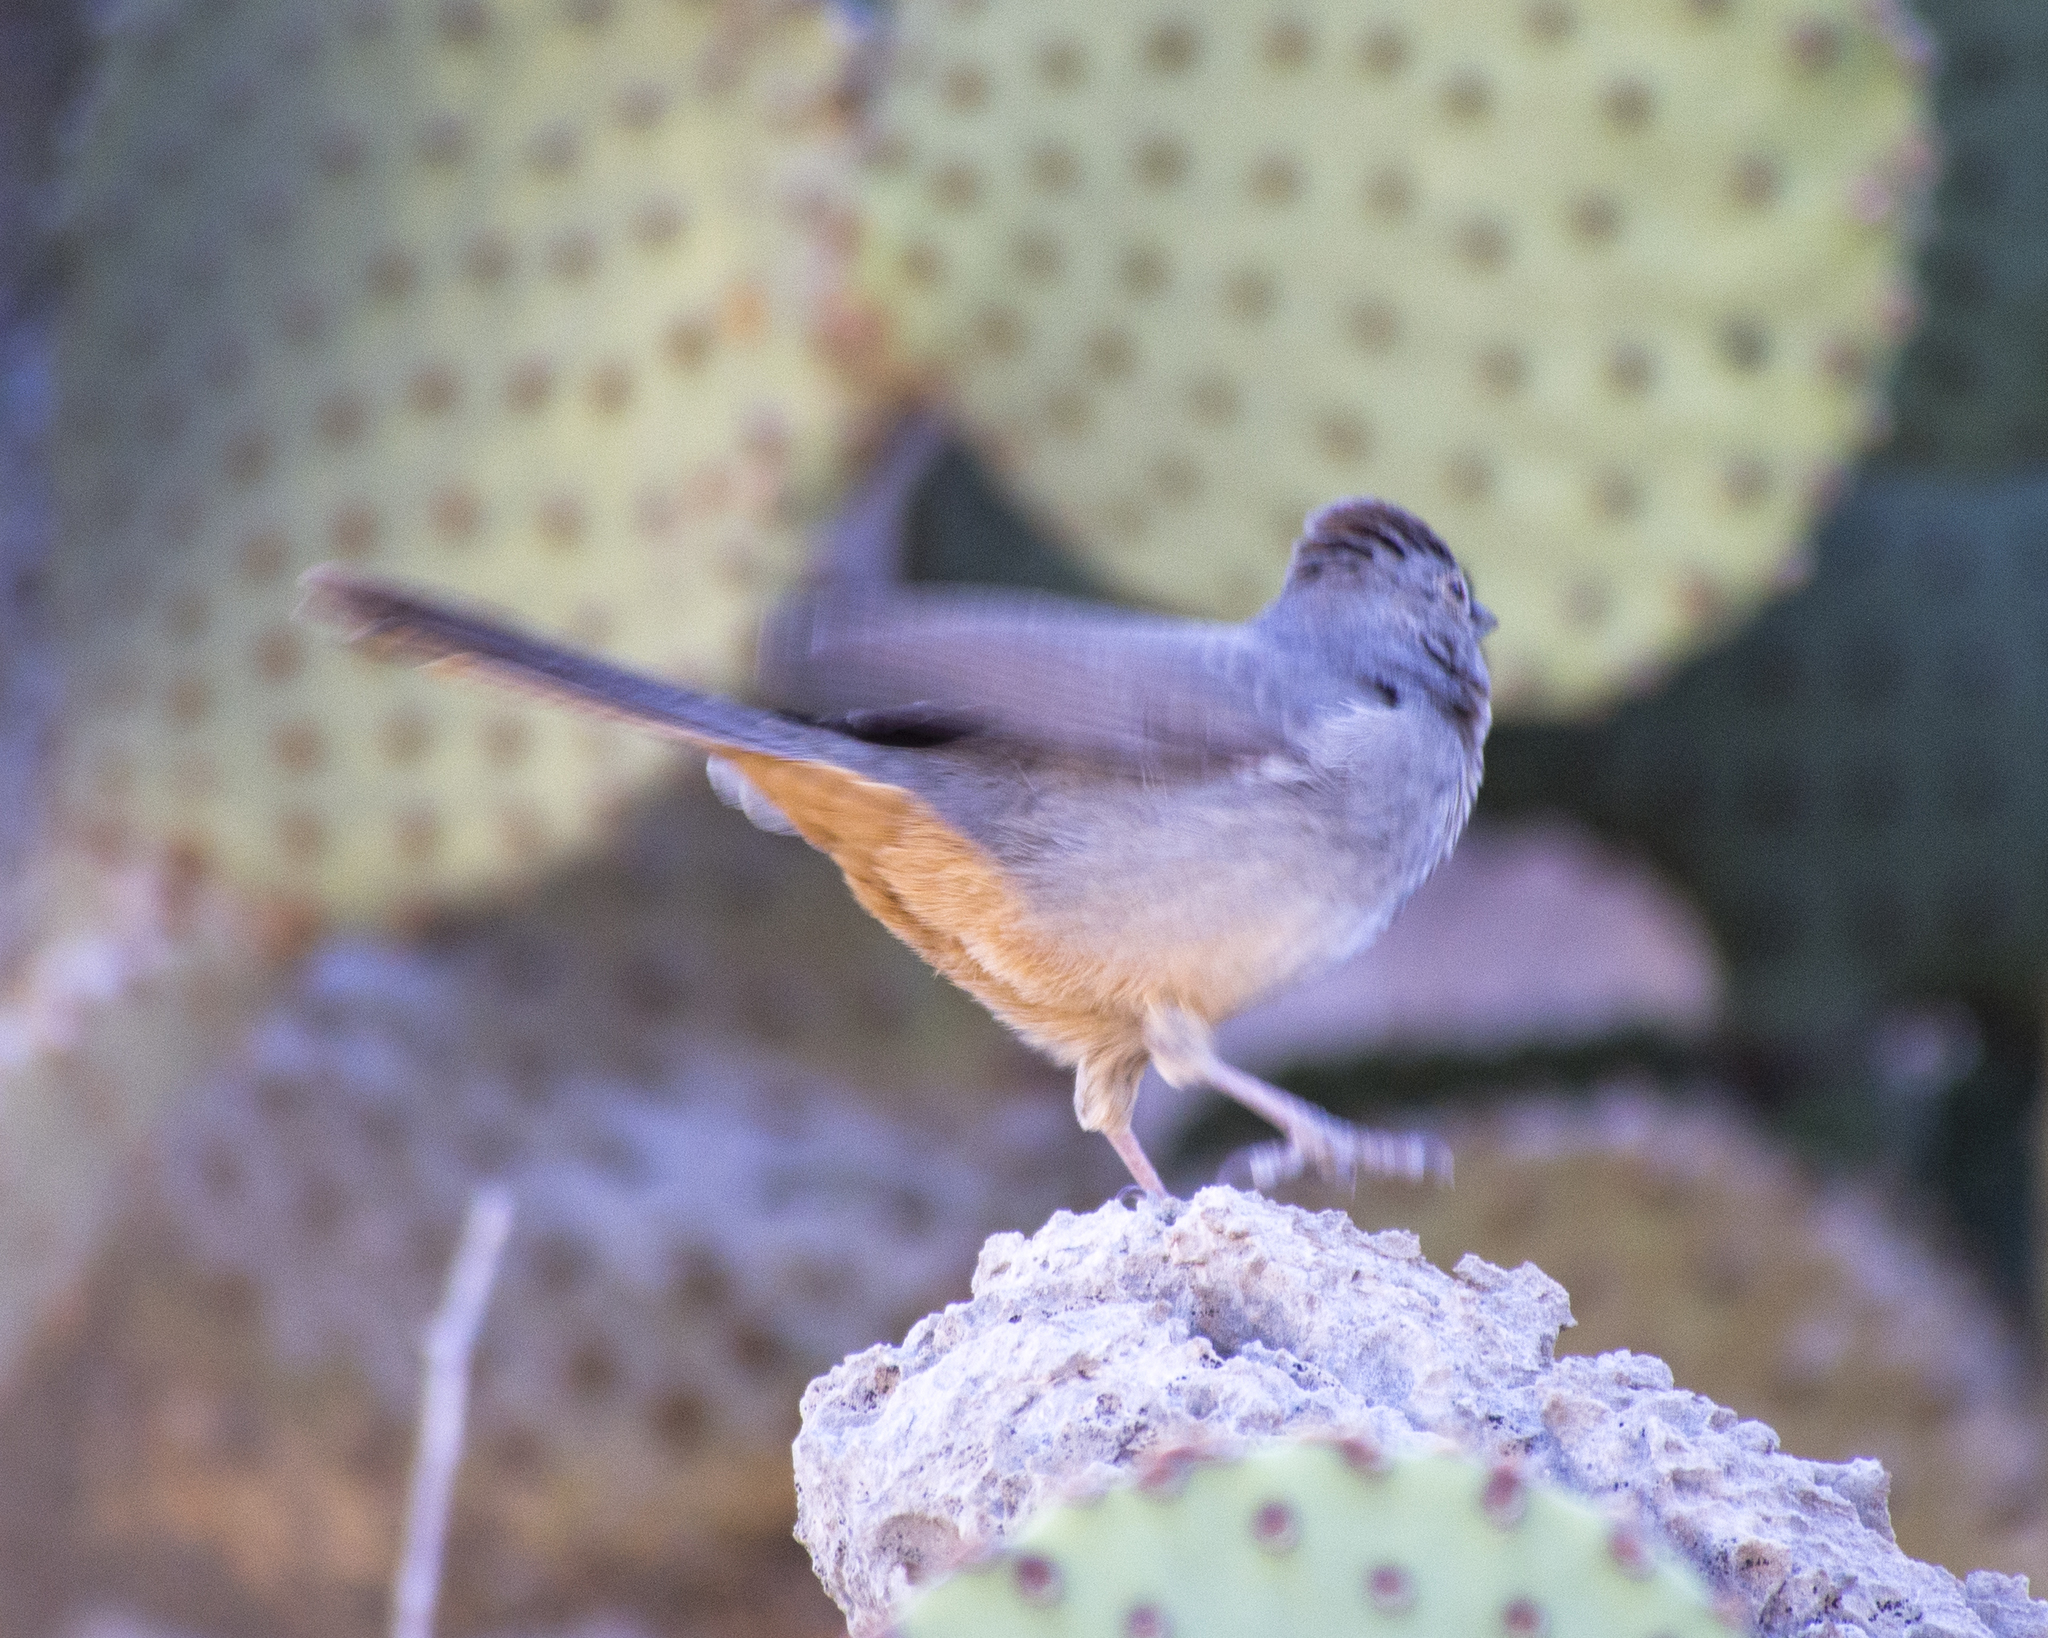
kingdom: Animalia
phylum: Chordata
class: Aves
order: Passeriformes
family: Passerellidae
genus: Melozone
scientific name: Melozone fusca
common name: Canyon towhee
